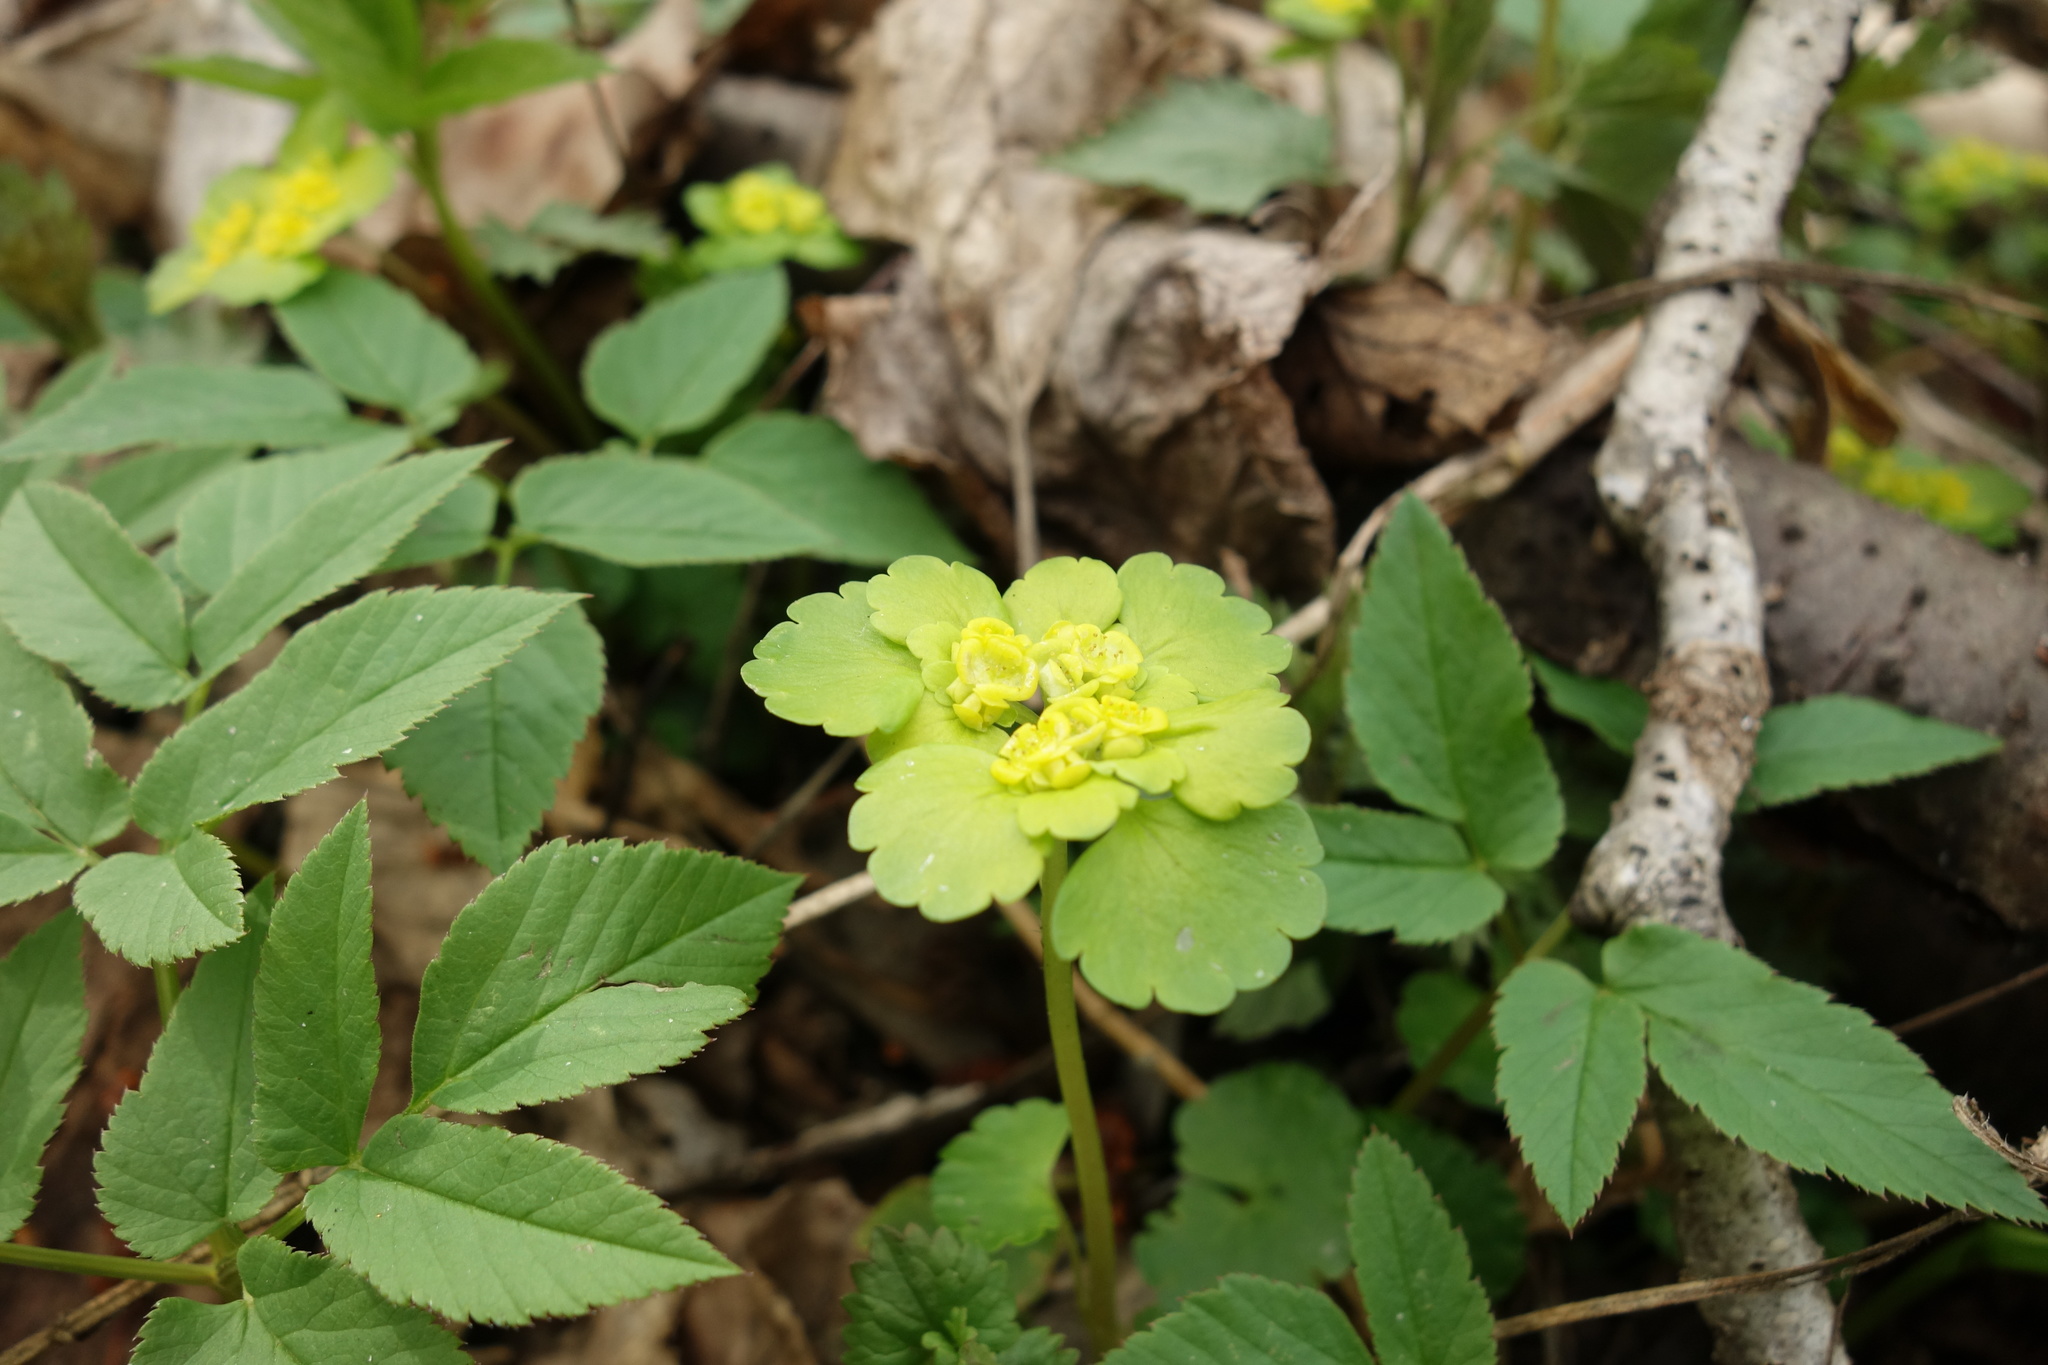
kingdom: Plantae
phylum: Tracheophyta
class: Magnoliopsida
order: Saxifragales
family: Saxifragaceae
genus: Chrysosplenium
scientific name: Chrysosplenium alternifolium
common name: Alternate-leaved golden-saxifrage
